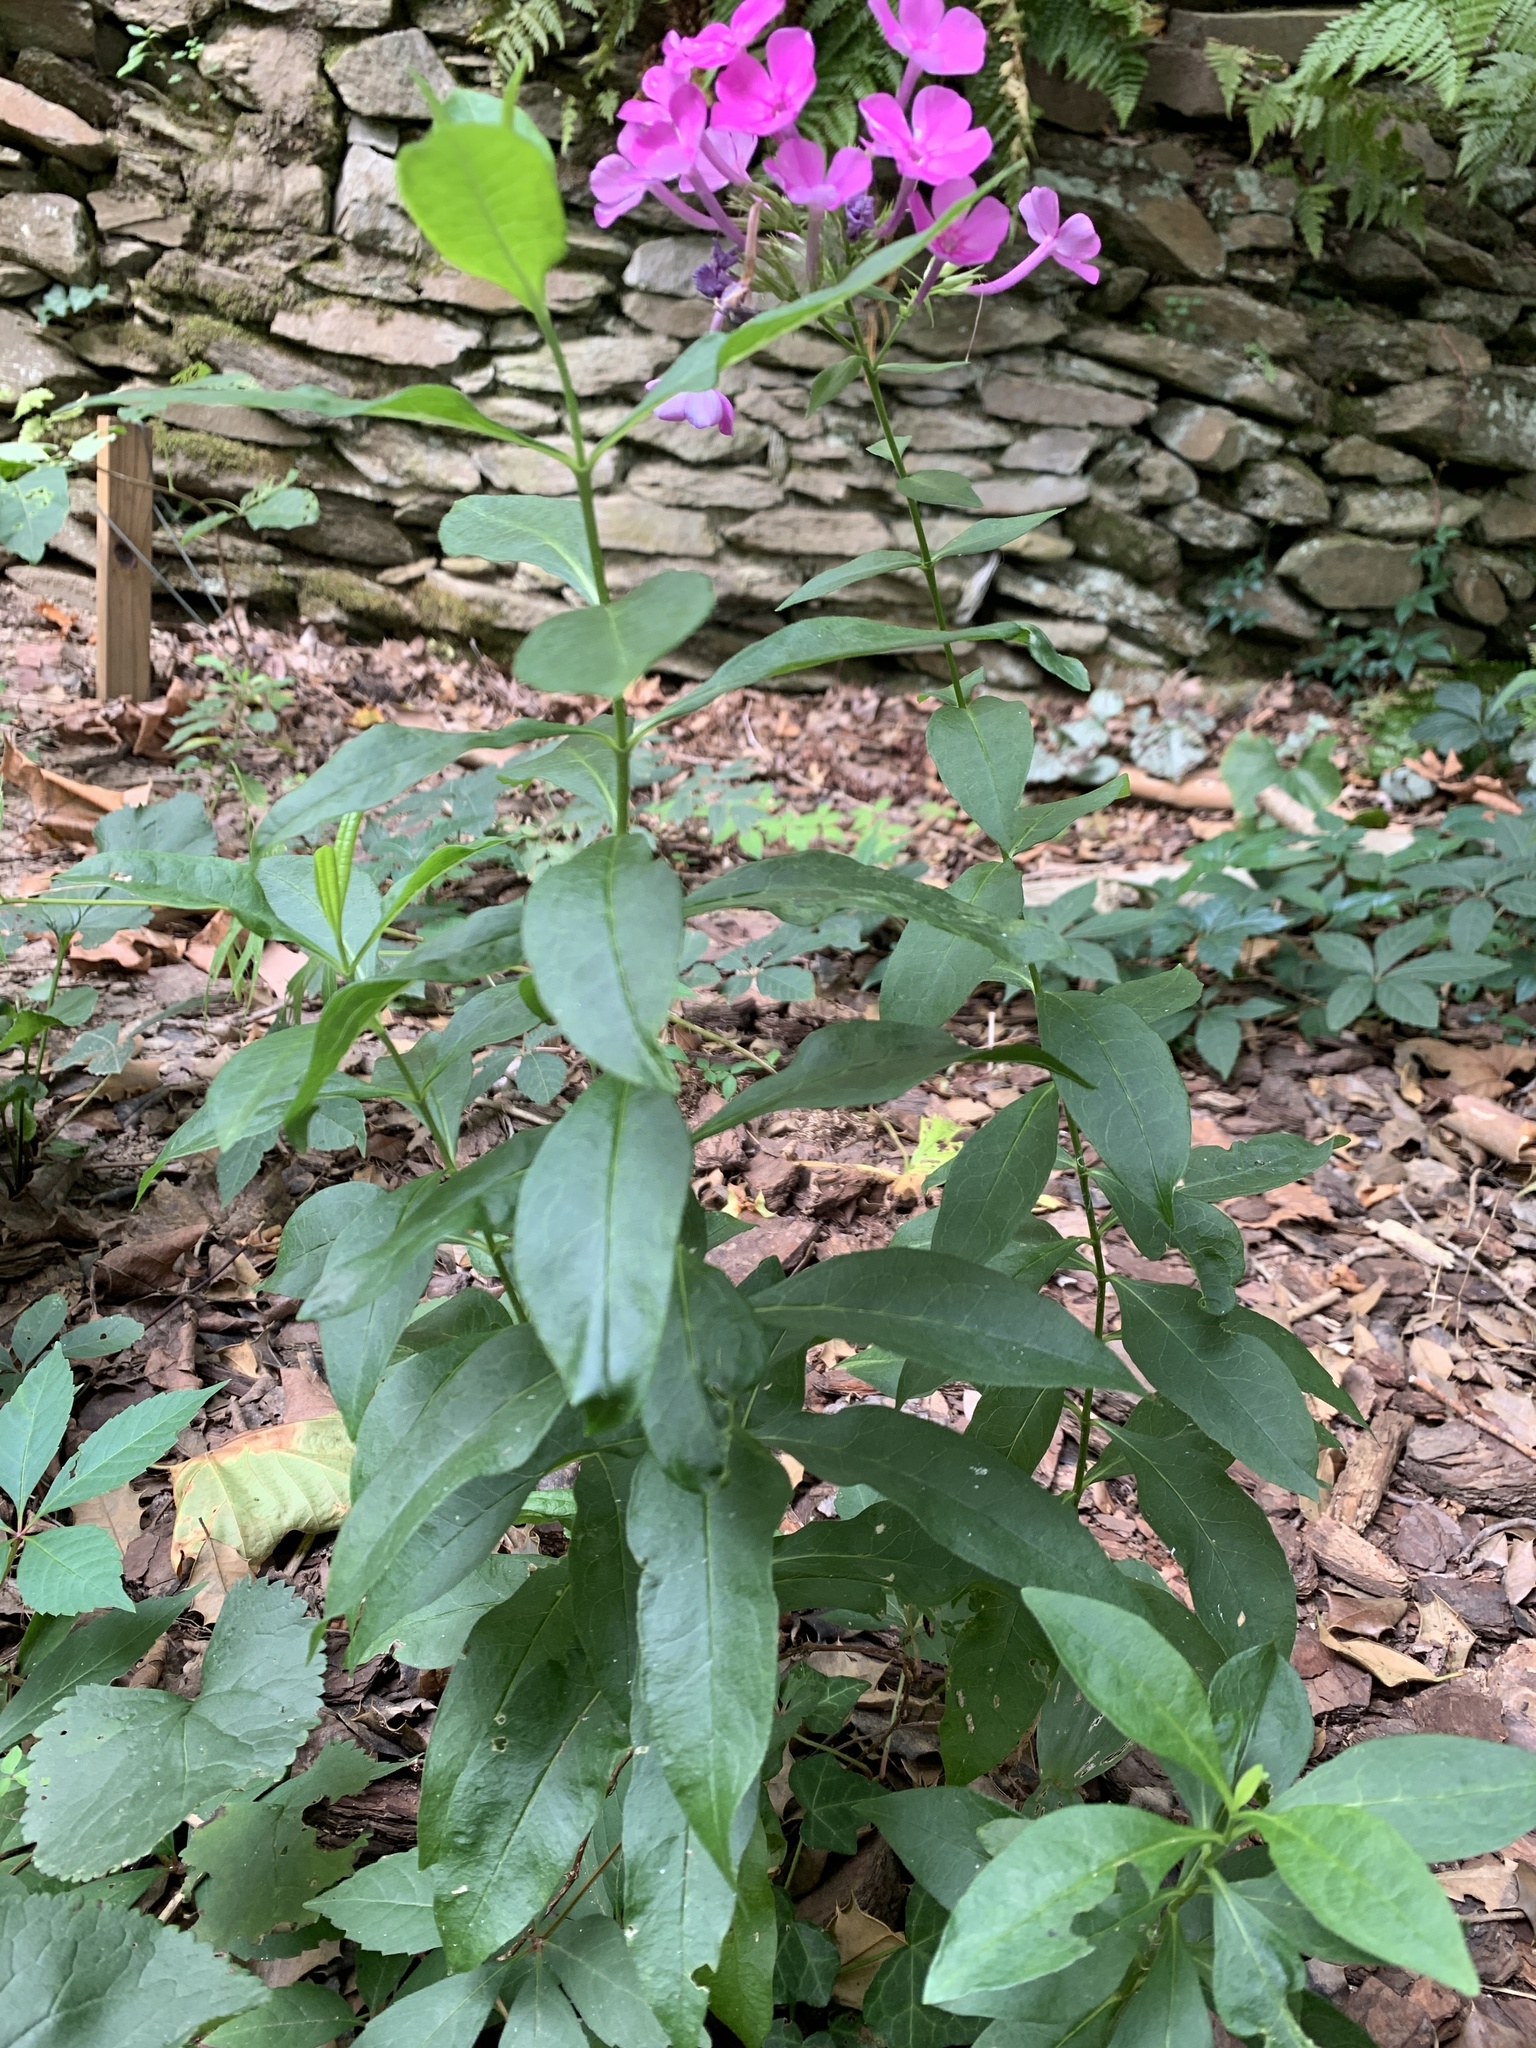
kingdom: Plantae
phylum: Tracheophyta
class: Magnoliopsida
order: Ericales
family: Polemoniaceae
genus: Phlox
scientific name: Phlox paniculata
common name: Fall phlox
